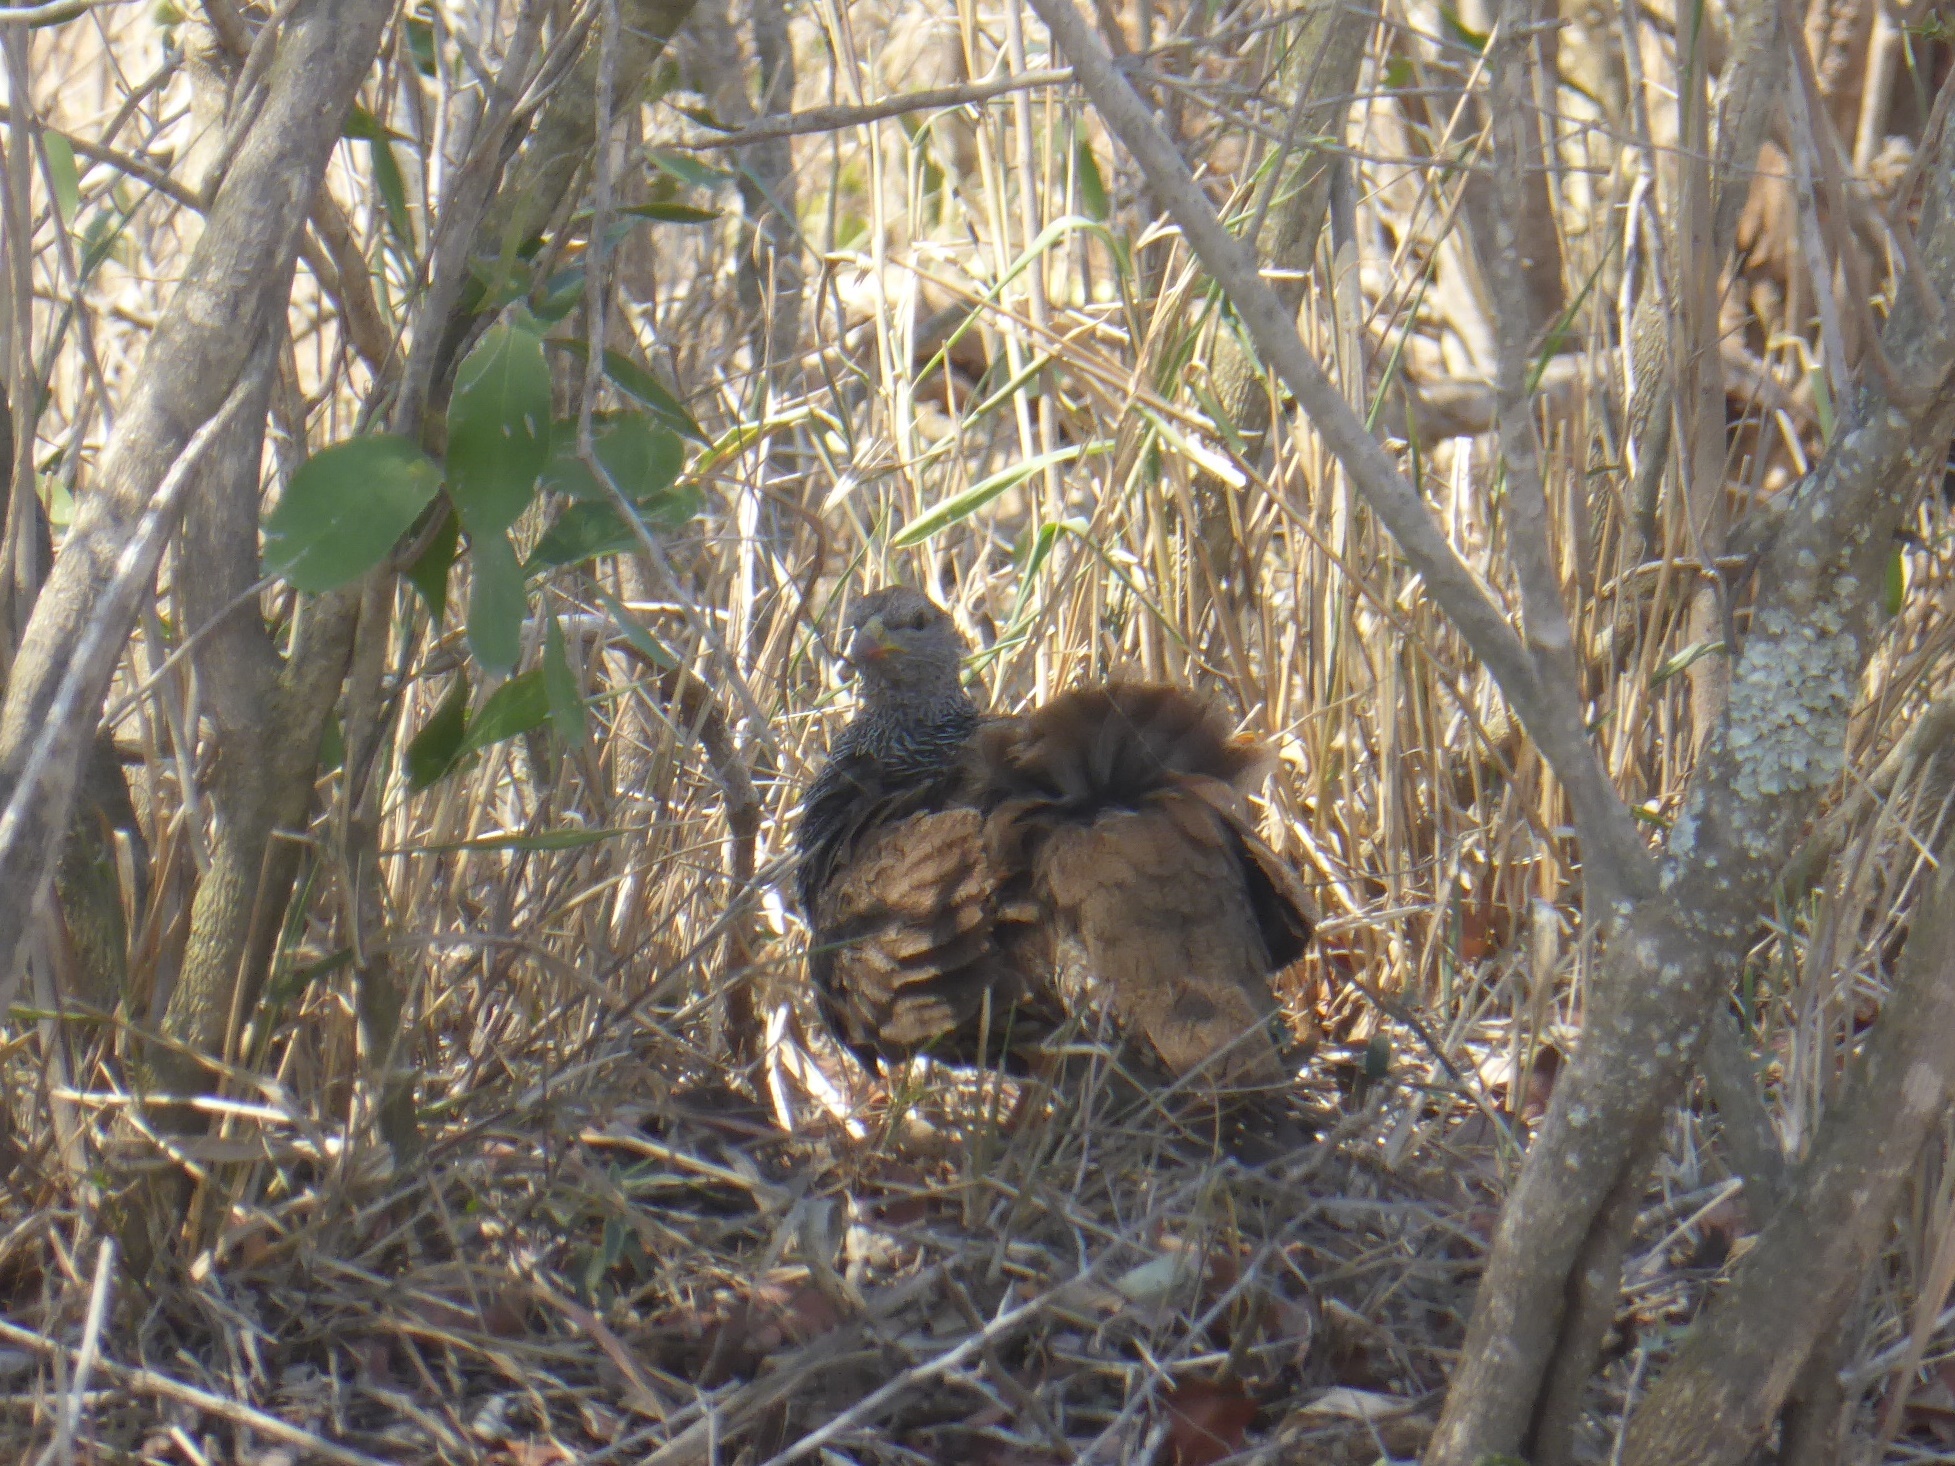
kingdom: Animalia
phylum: Chordata
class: Aves
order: Galliformes
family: Phasianidae
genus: Pternistis
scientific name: Pternistis natalensis
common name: Natal spurfowl
